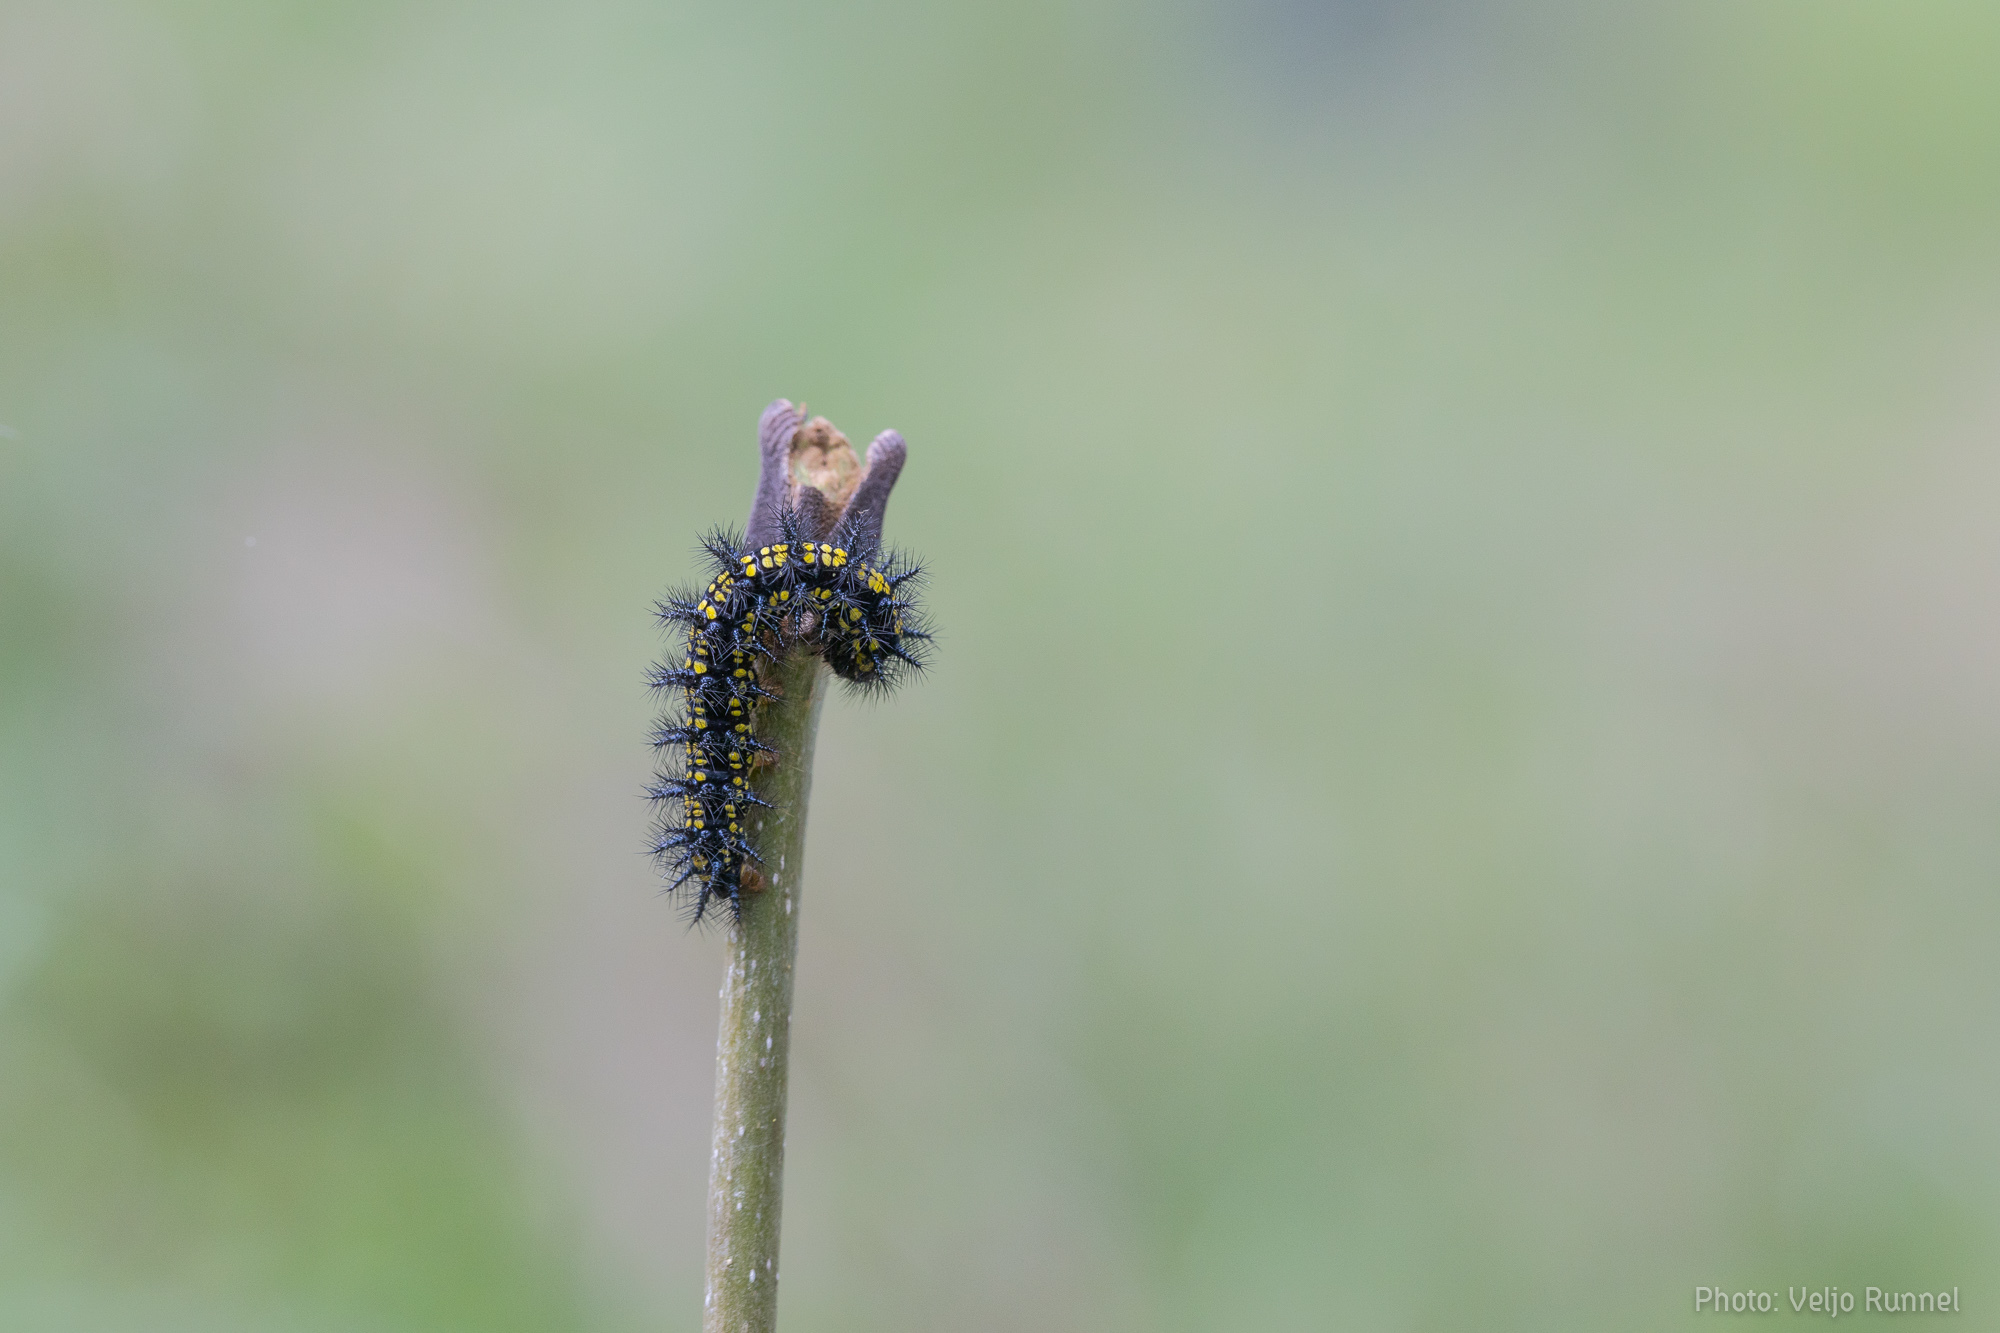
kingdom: Animalia
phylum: Arthropoda
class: Insecta
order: Lepidoptera
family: Nymphalidae
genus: Euphydryas
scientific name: Euphydryas maturna
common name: Scarce fritillary
